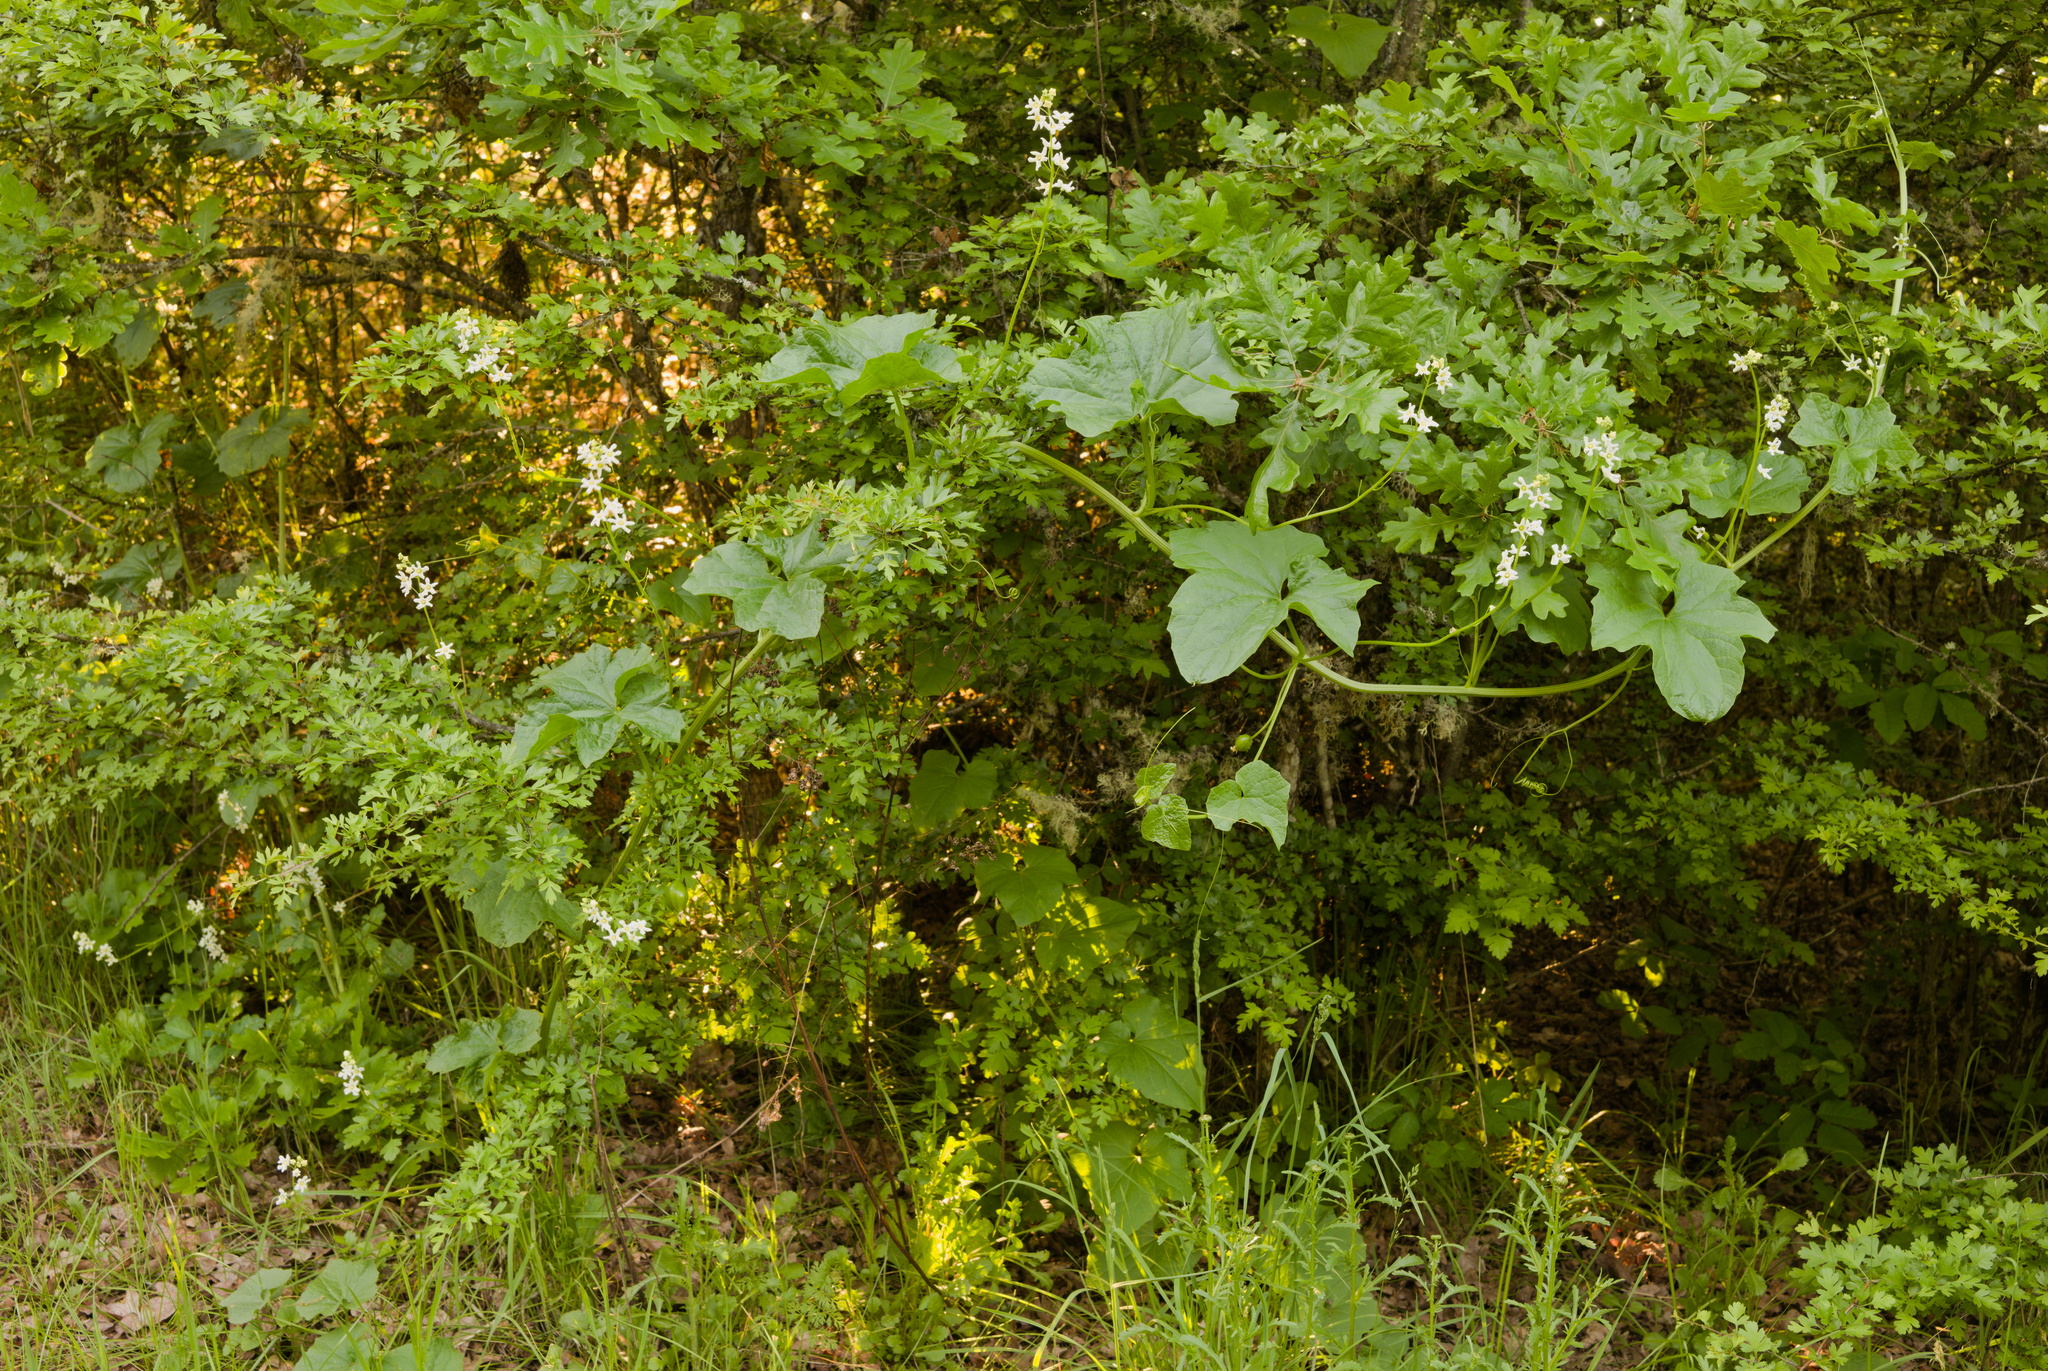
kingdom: Plantae
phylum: Tracheophyta
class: Magnoliopsida
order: Cucurbitales
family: Cucurbitaceae
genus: Marah
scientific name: Marah oregana
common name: Coastal manroot
